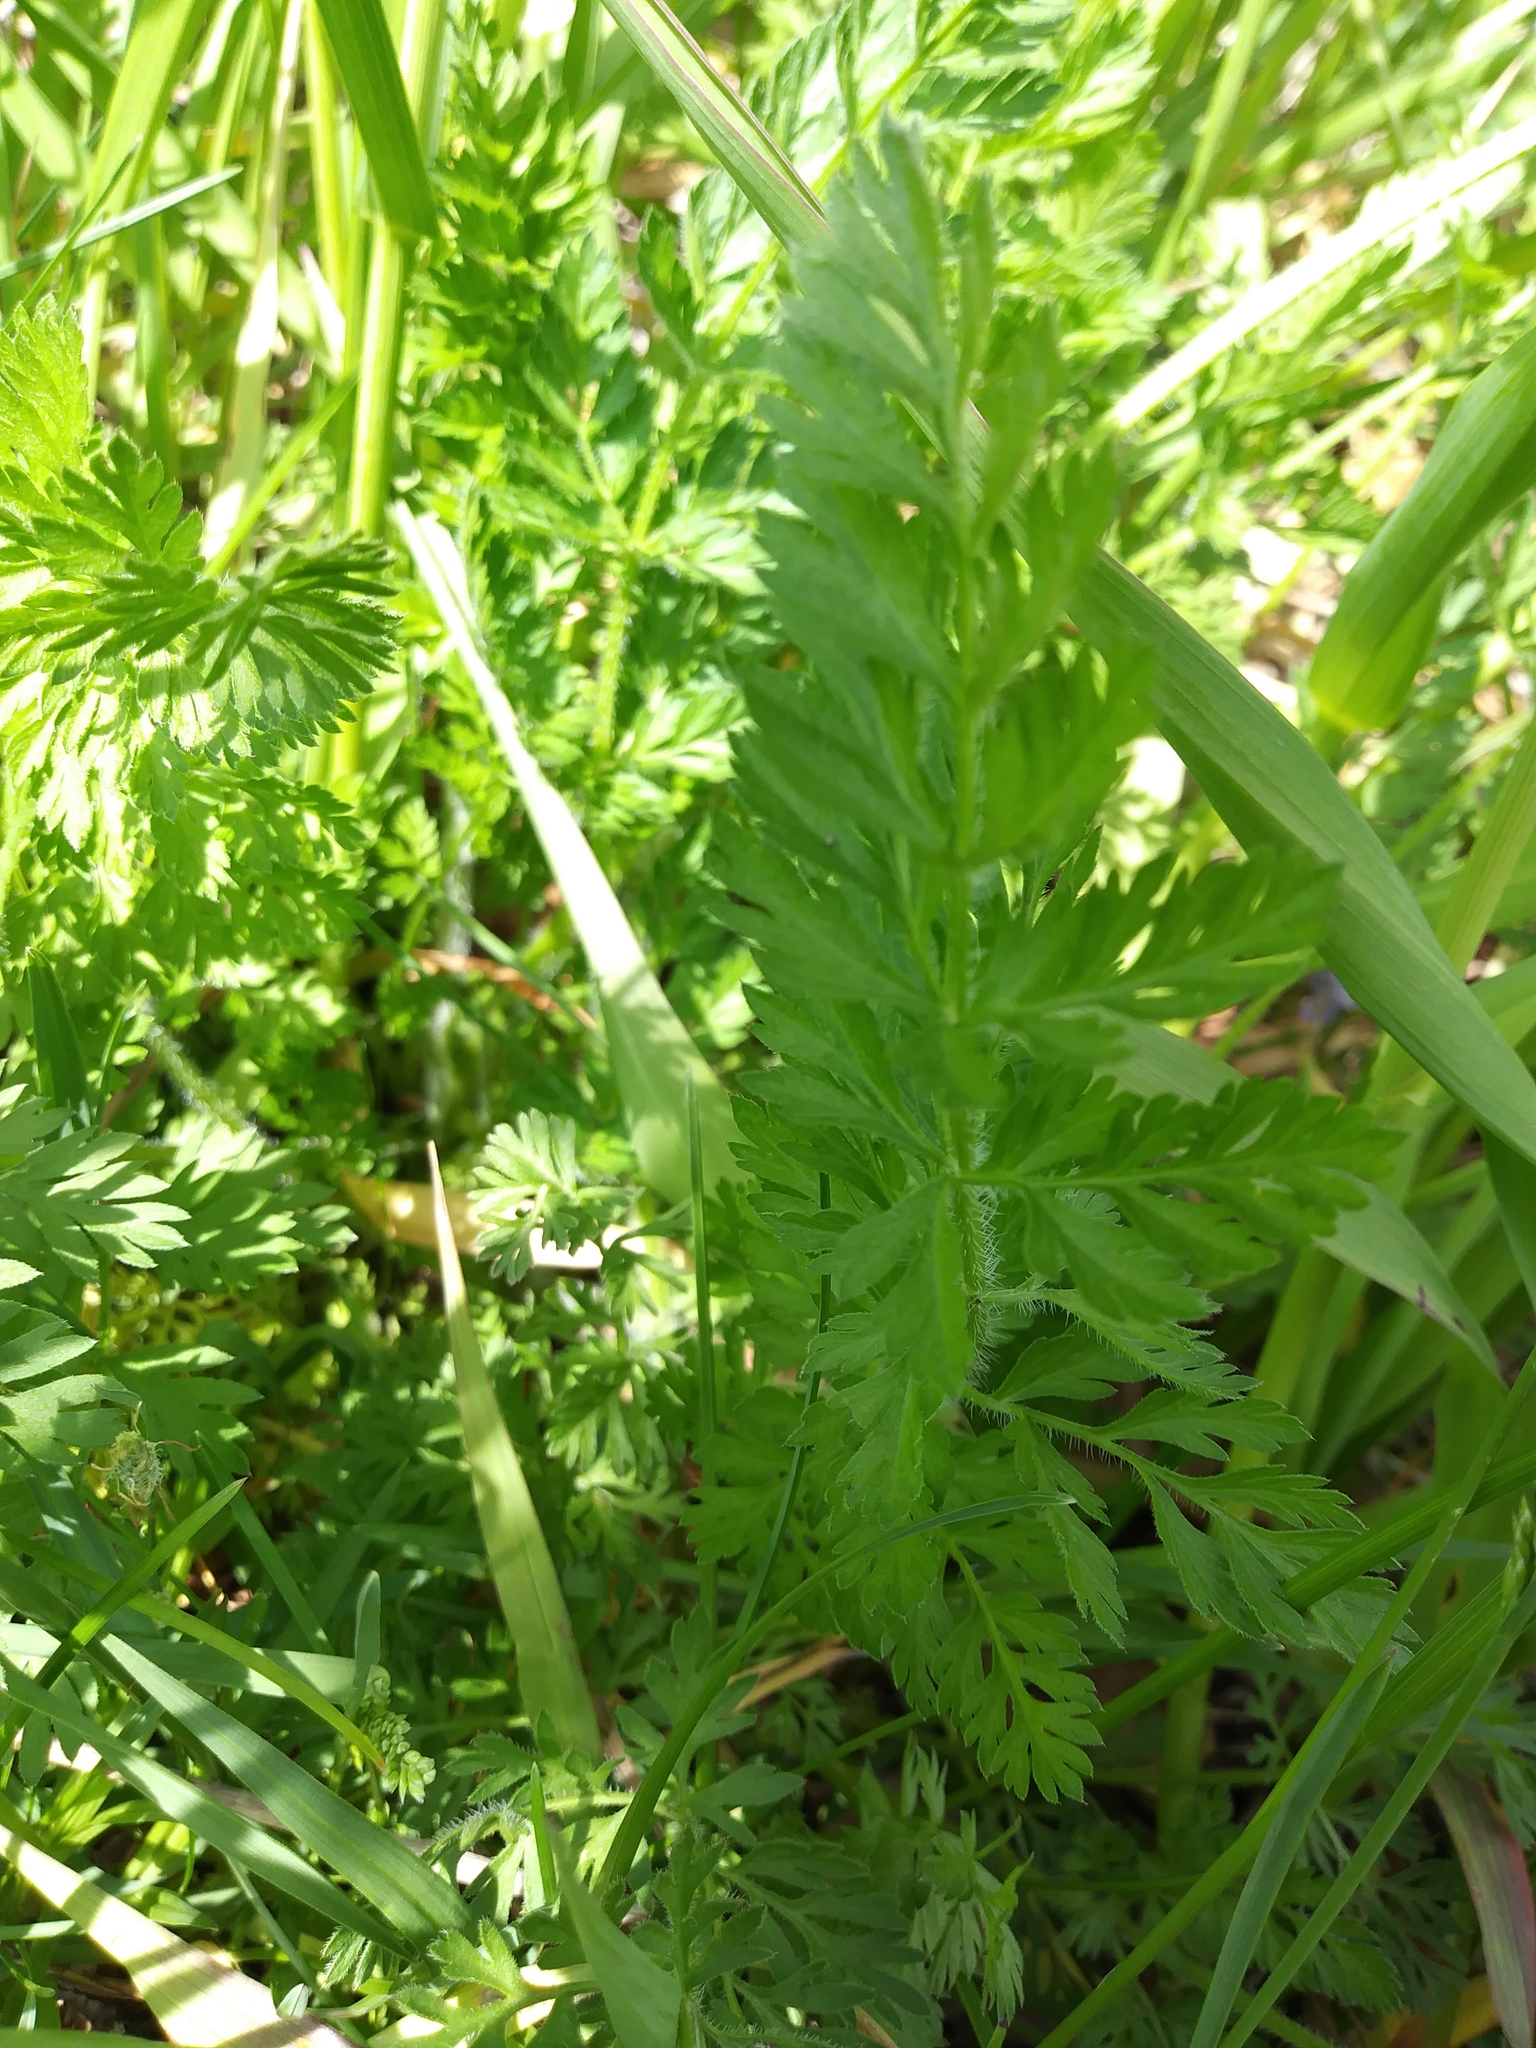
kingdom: Plantae
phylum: Tracheophyta
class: Magnoliopsida
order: Apiales
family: Apiaceae
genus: Daucus
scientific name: Daucus carota
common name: Wild carrot
